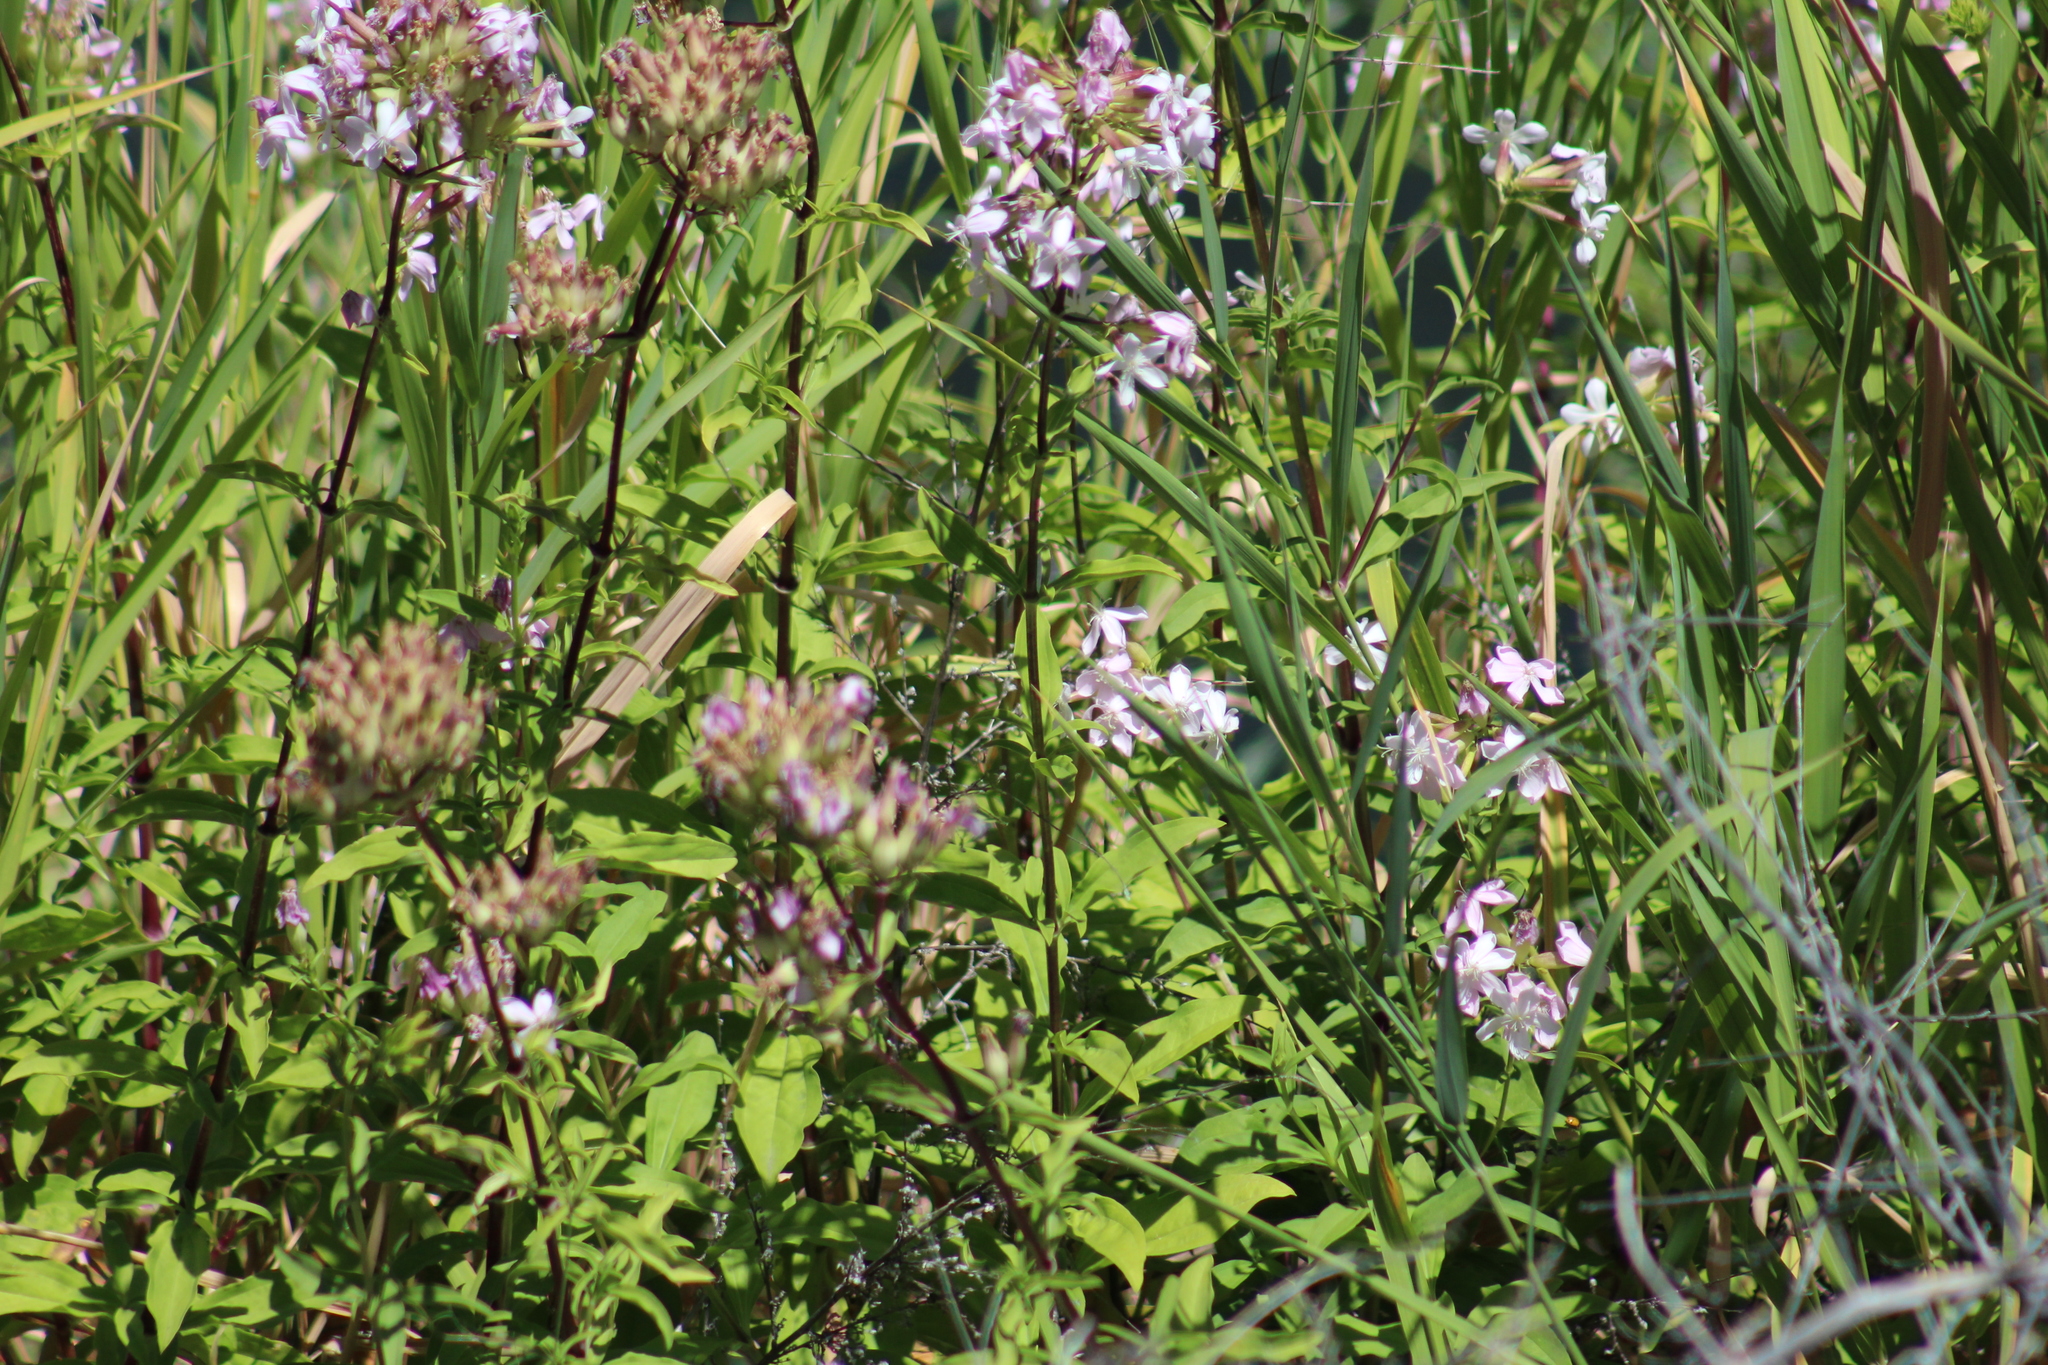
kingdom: Plantae
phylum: Tracheophyta
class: Magnoliopsida
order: Caryophyllales
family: Caryophyllaceae
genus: Saponaria
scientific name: Saponaria officinalis
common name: Soapwort
